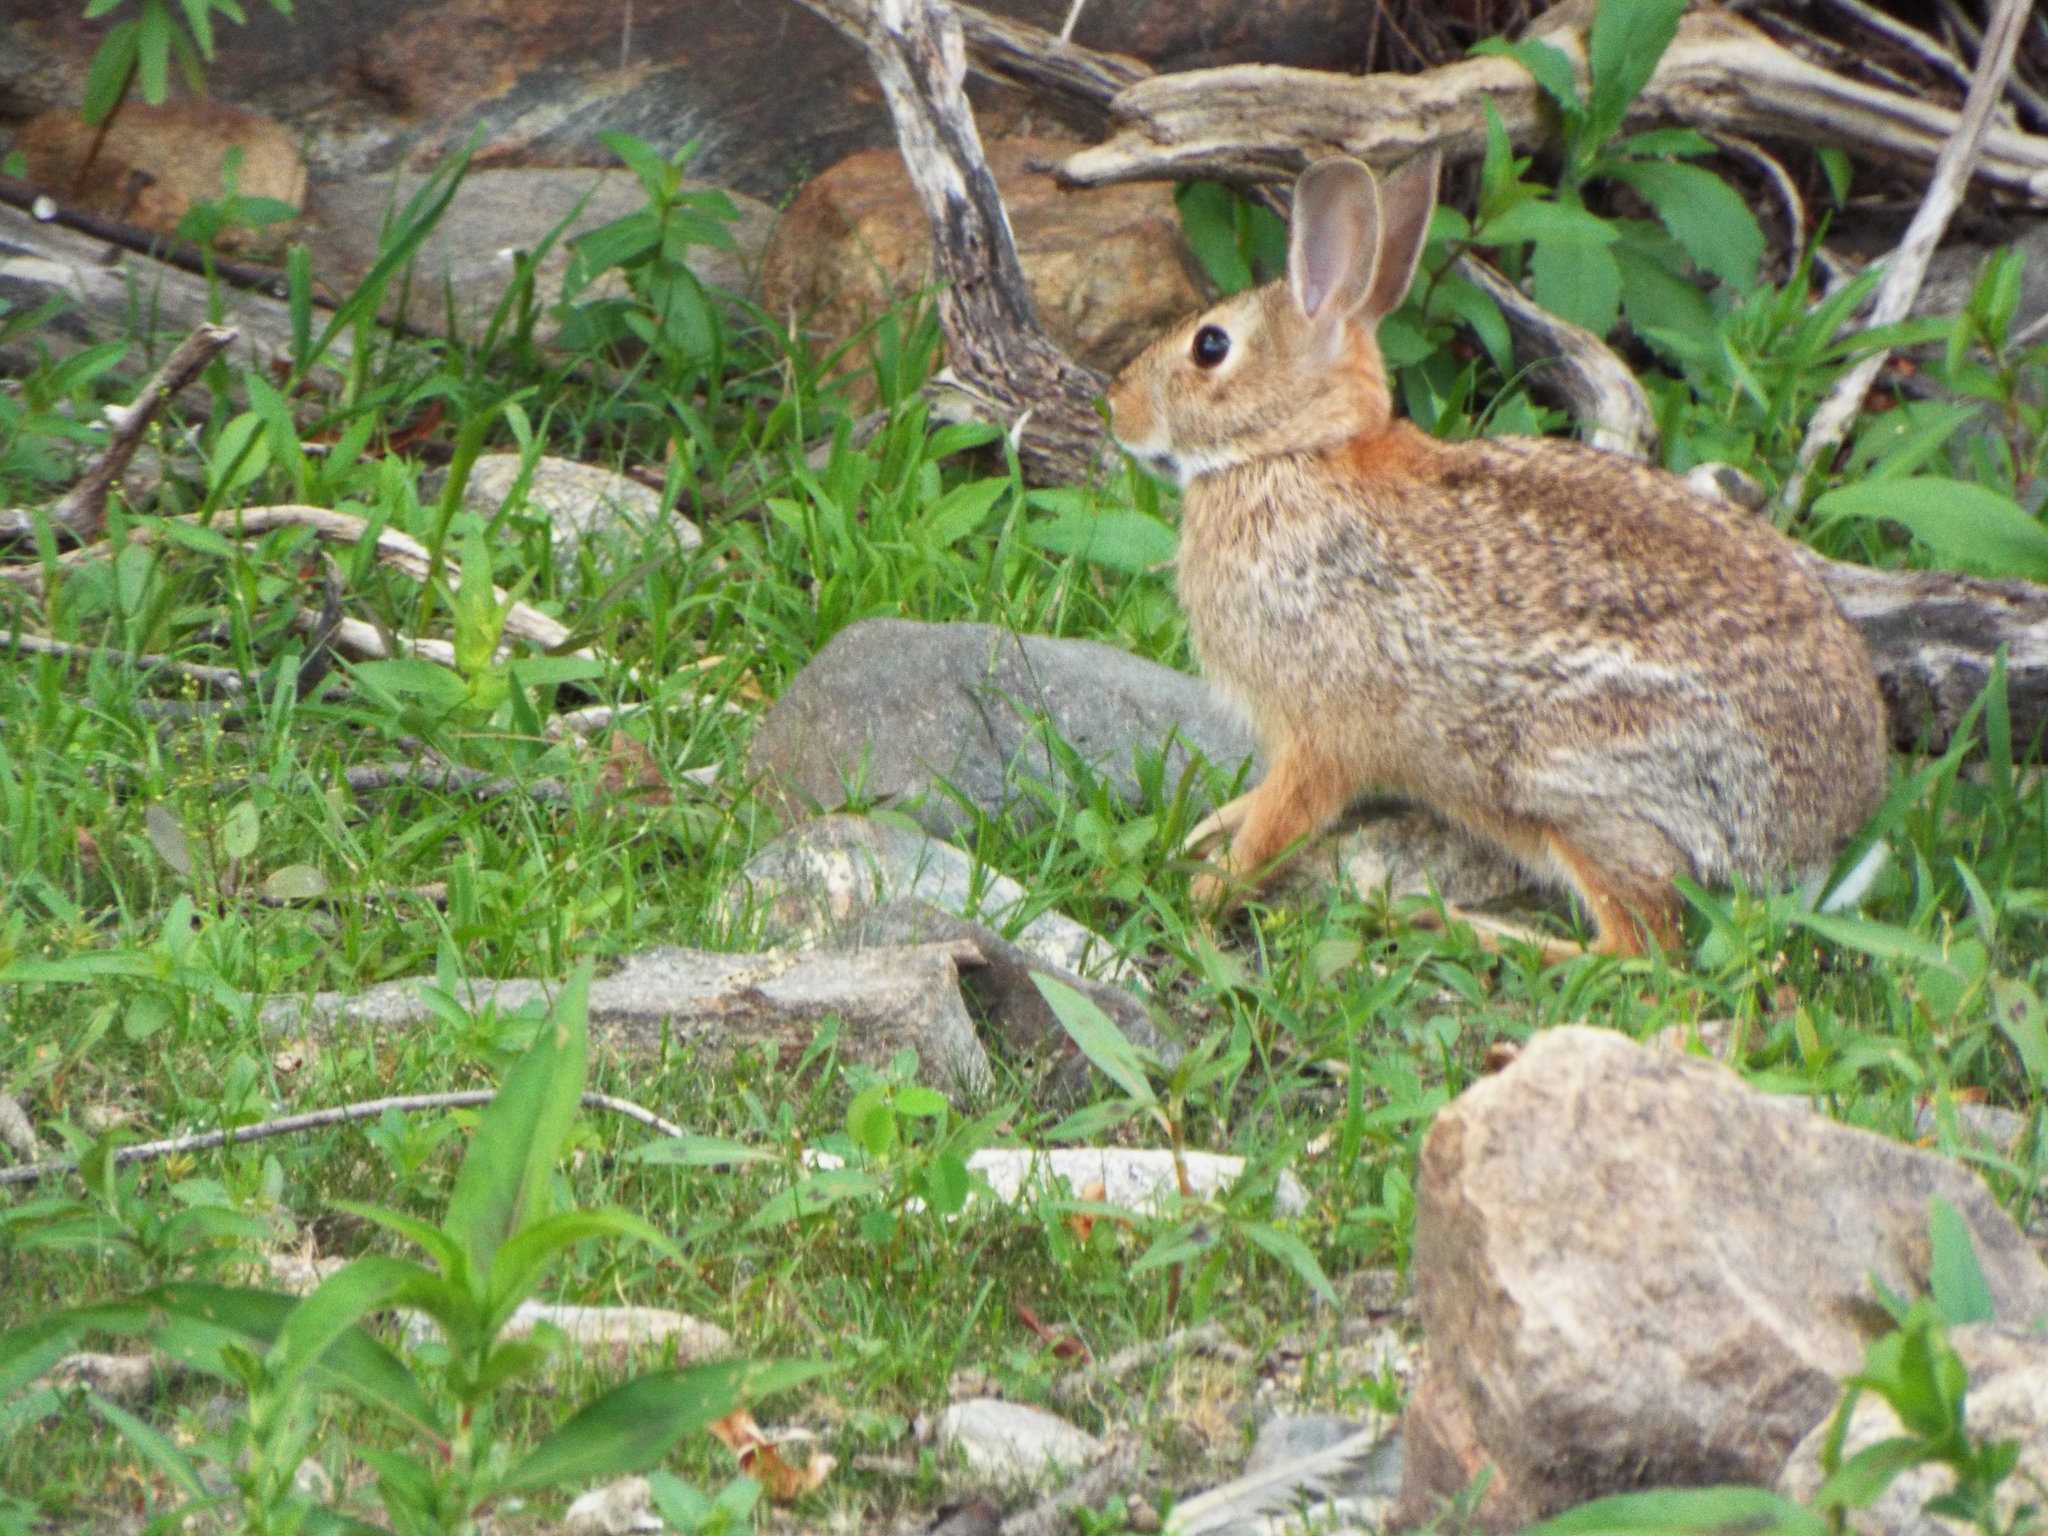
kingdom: Animalia
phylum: Chordata
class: Mammalia
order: Lagomorpha
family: Leporidae
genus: Sylvilagus
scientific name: Sylvilagus floridanus
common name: Eastern cottontail
